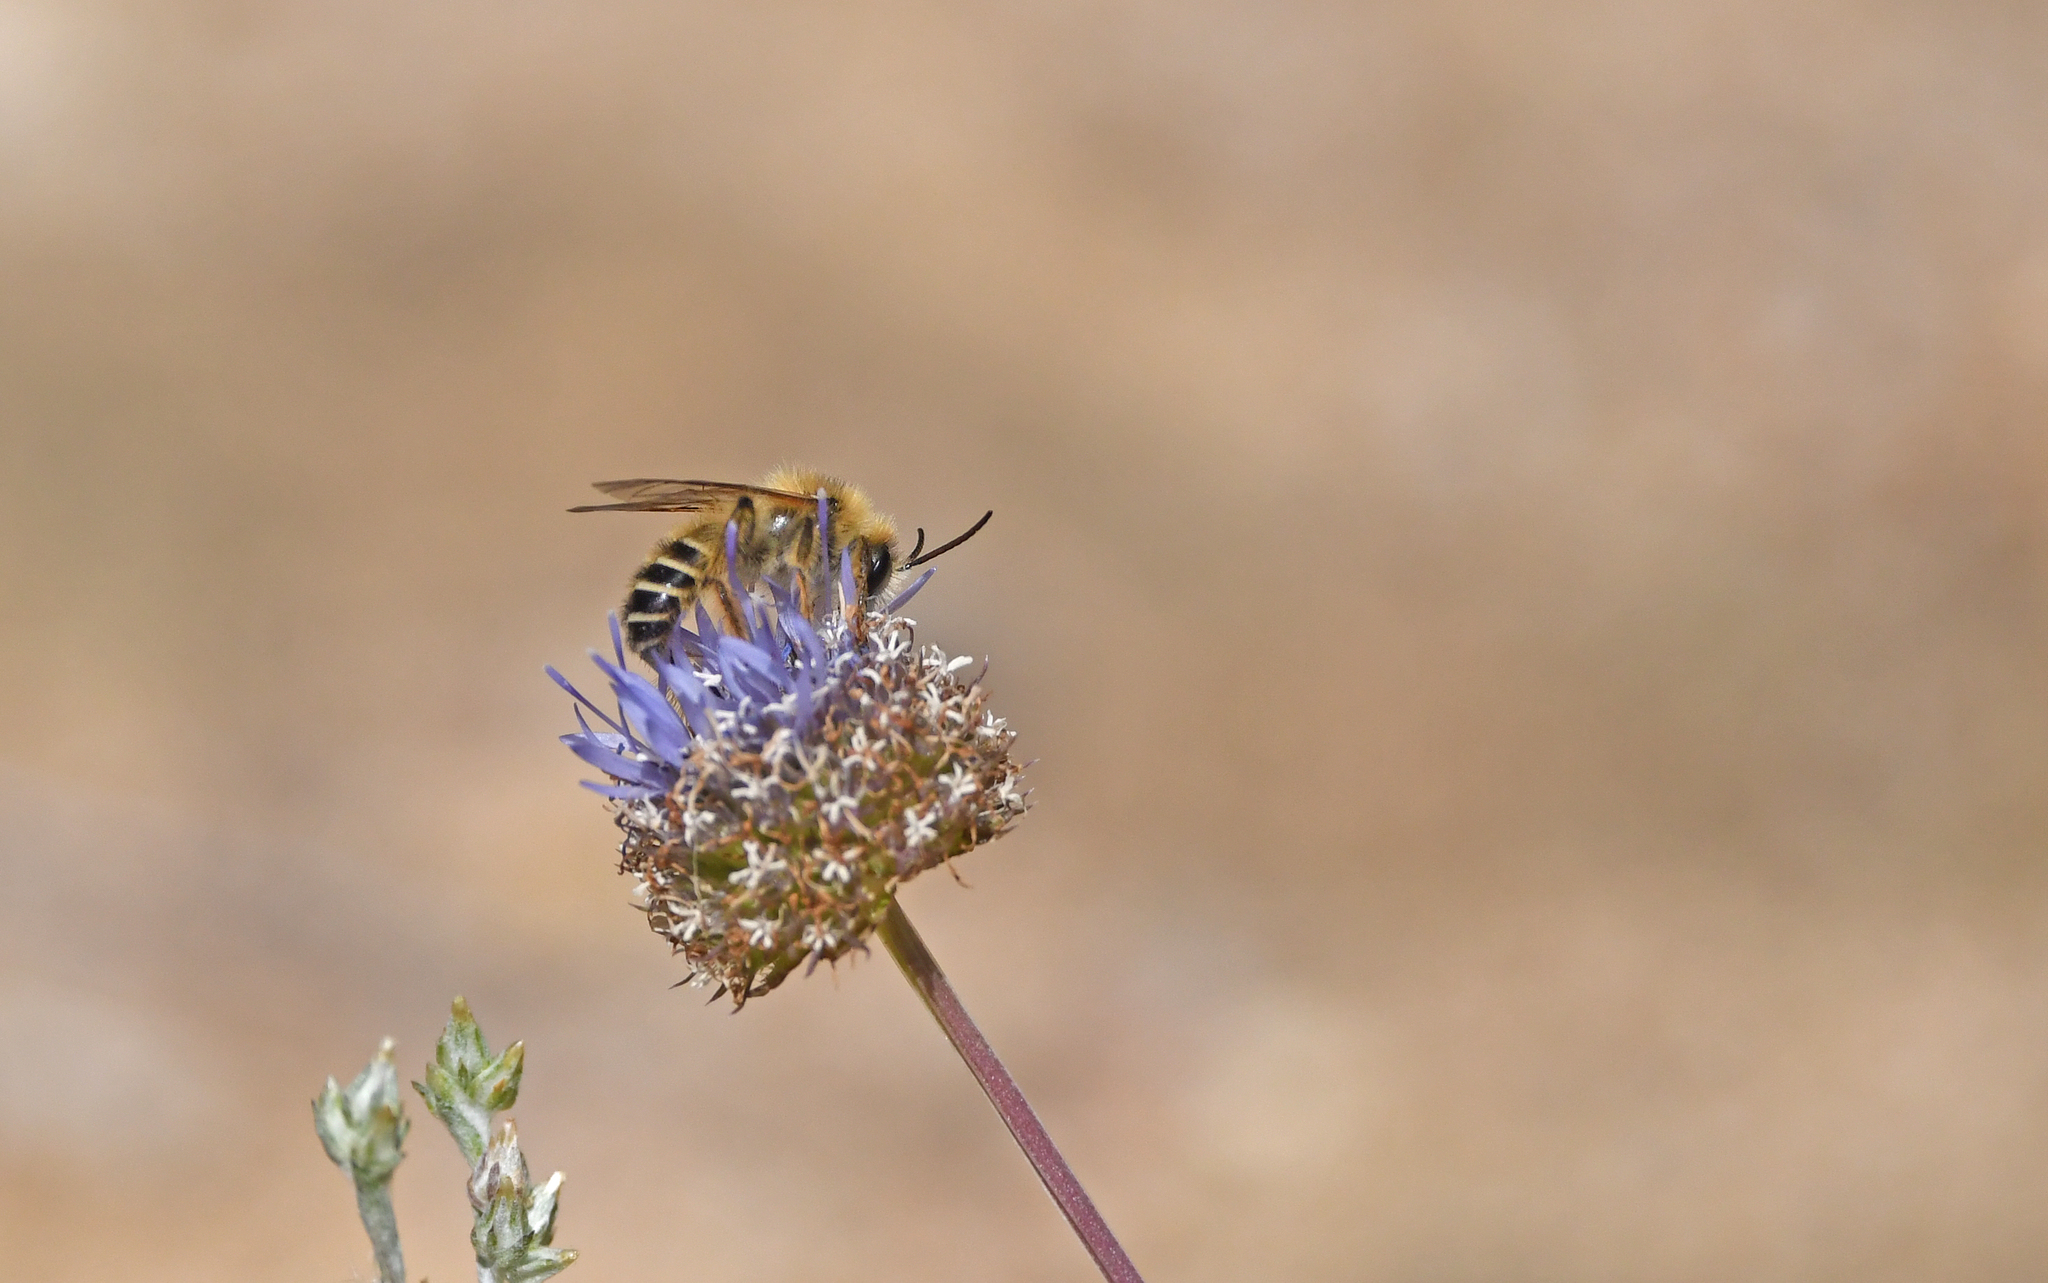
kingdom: Animalia
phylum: Arthropoda
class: Insecta
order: Hymenoptera
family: Melittidae
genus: Dasypoda
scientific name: Dasypoda hirtipes
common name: Pantaloon bee
